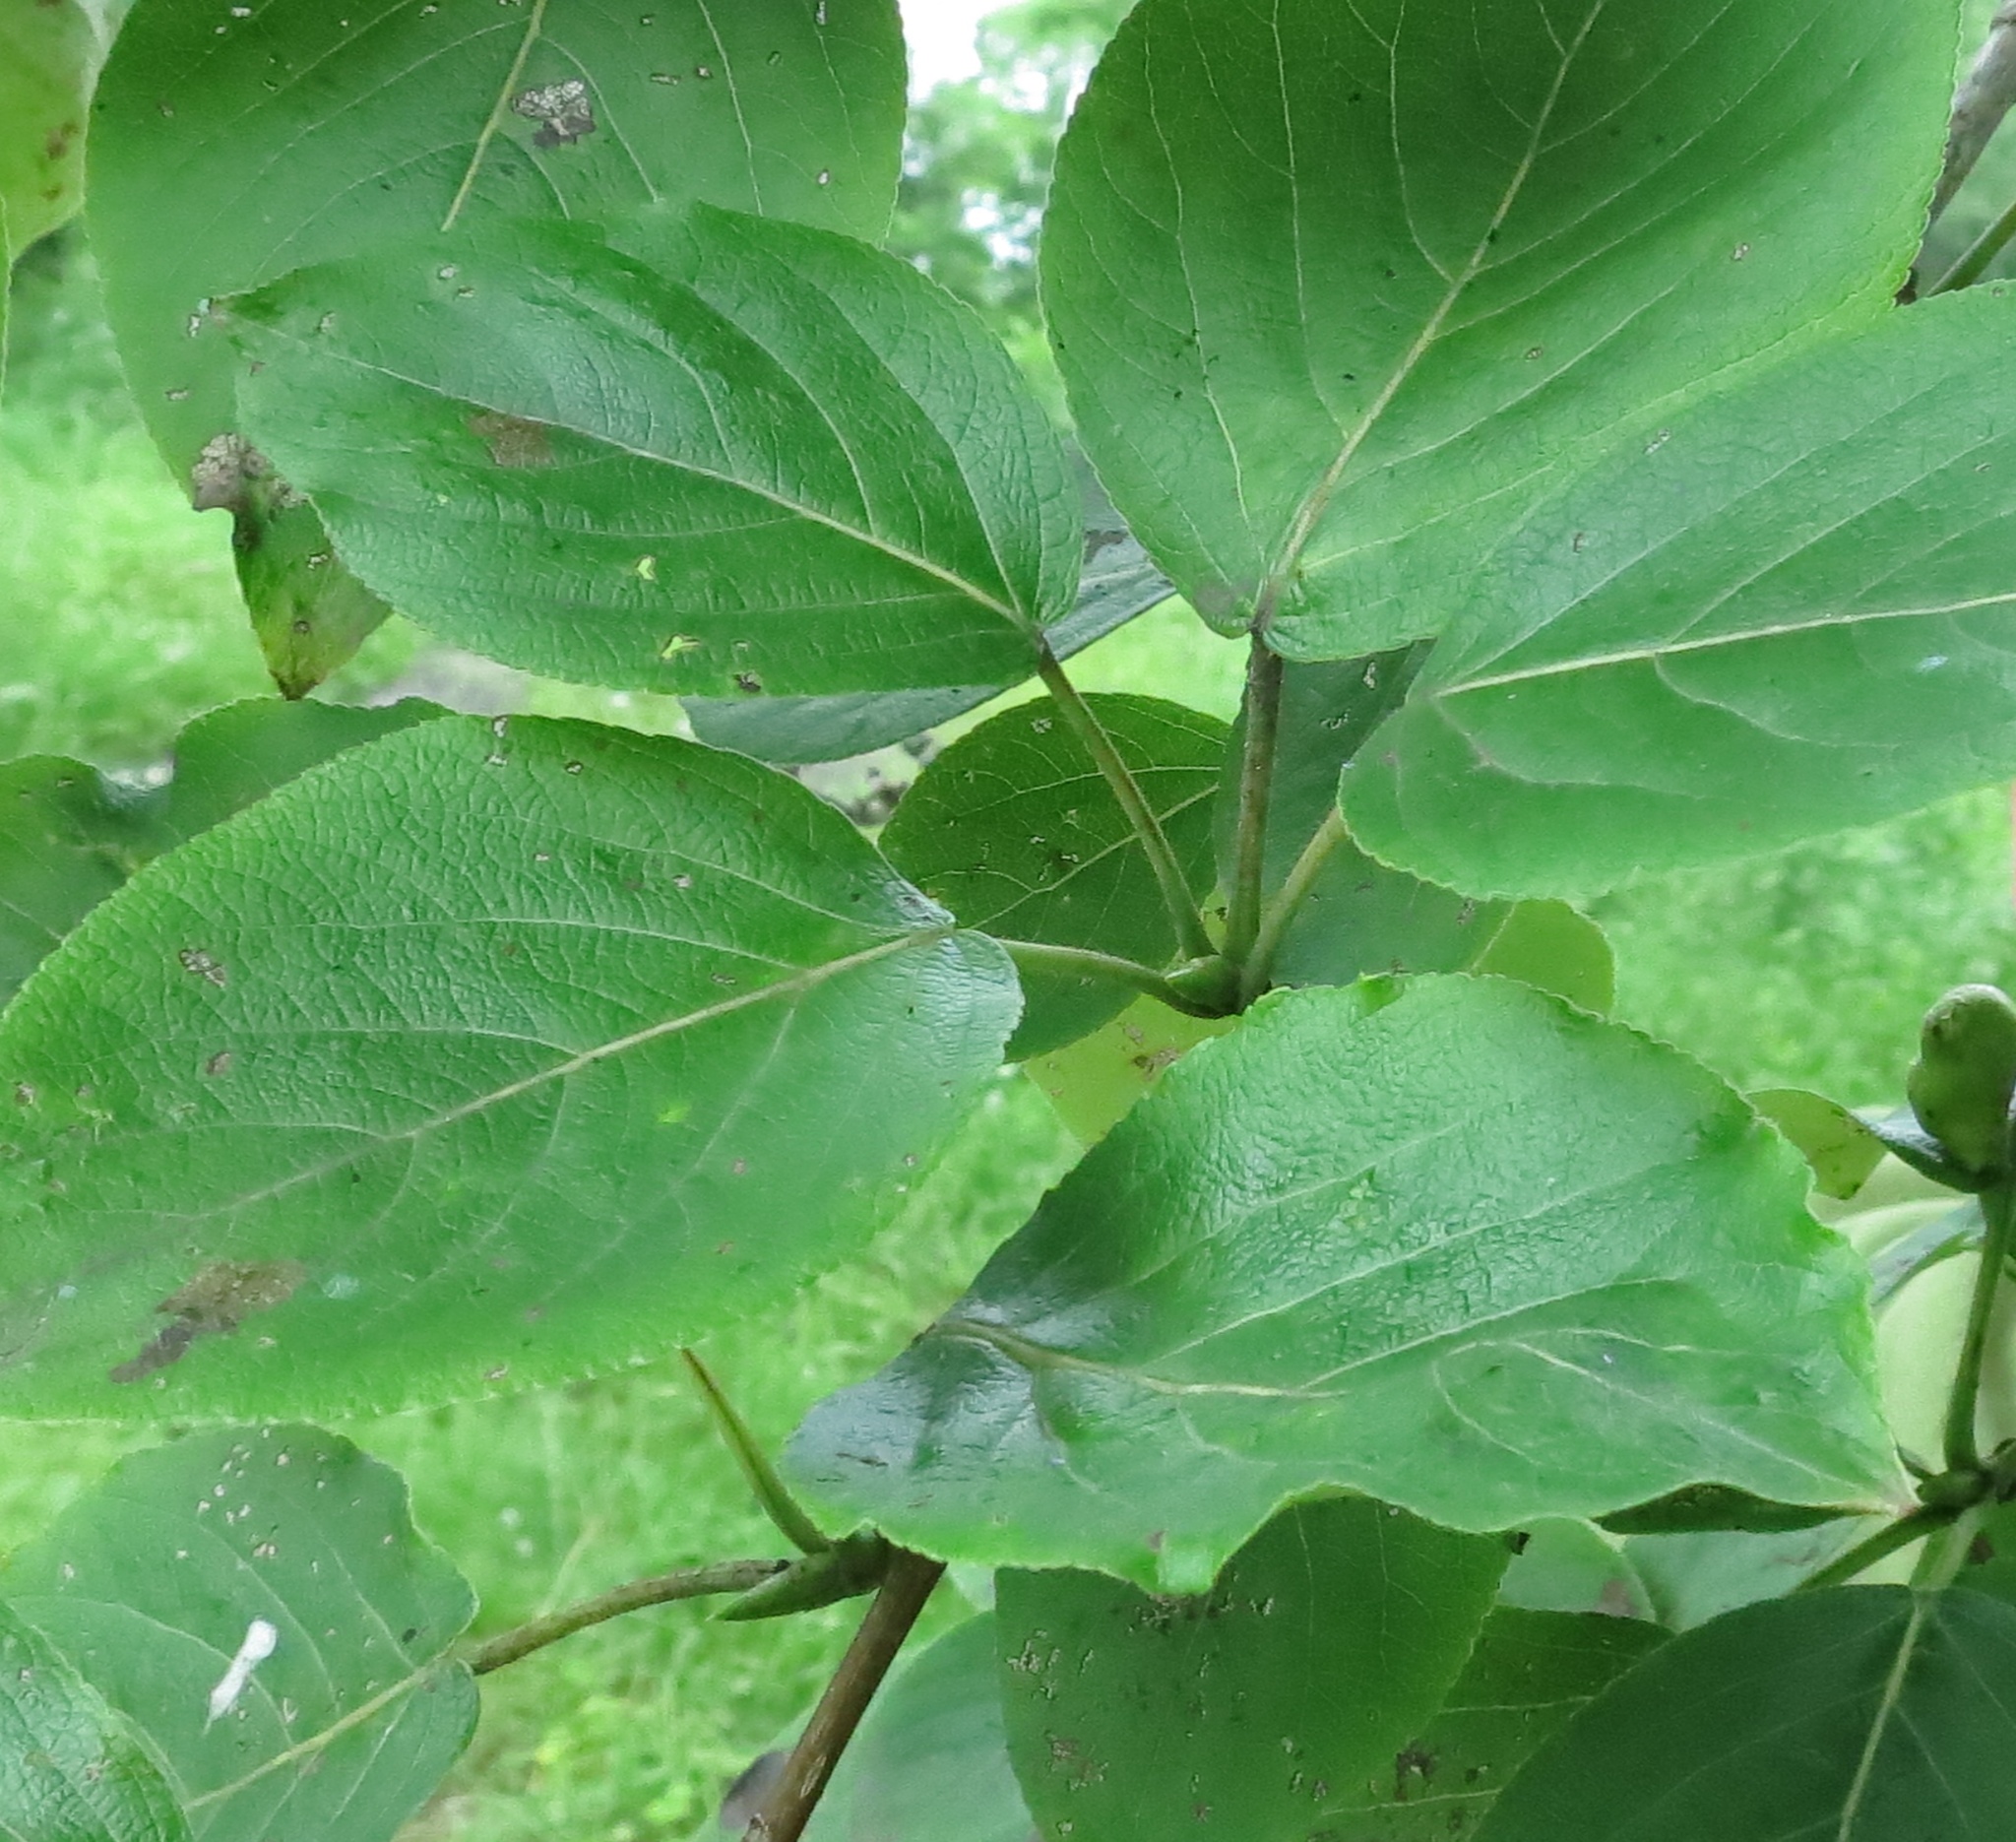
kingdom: Plantae
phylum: Tracheophyta
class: Magnoliopsida
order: Malpighiales
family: Salicaceae
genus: Populus
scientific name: Populus suaveolens
